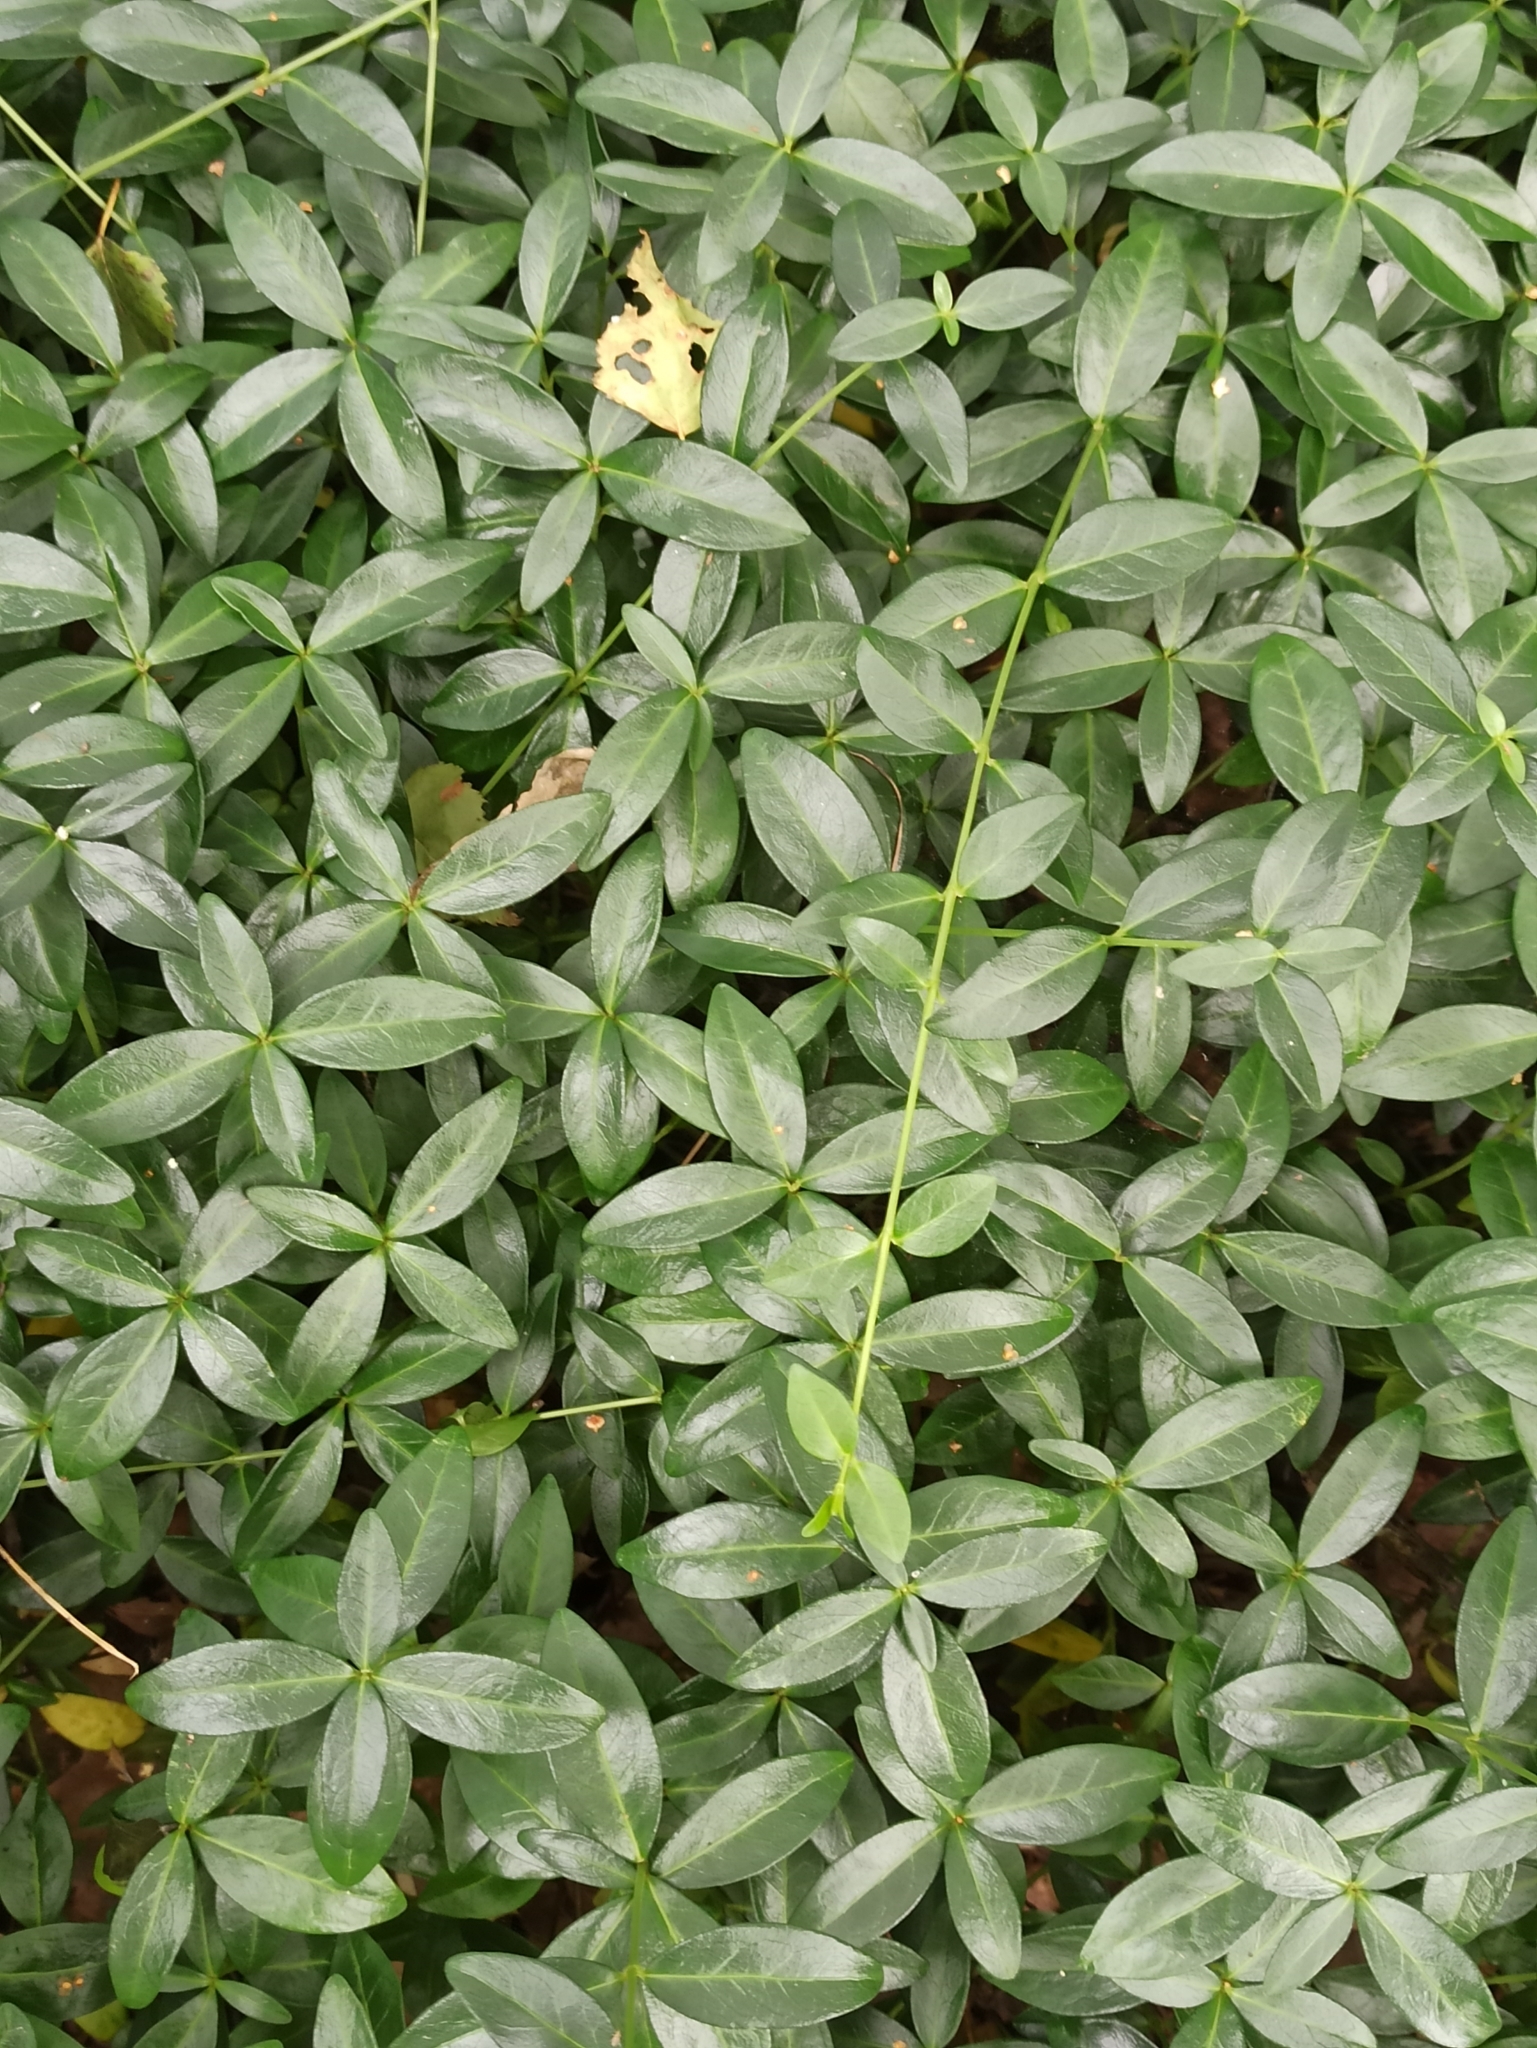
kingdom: Plantae
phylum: Tracheophyta
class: Magnoliopsida
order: Gentianales
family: Apocynaceae
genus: Vinca
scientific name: Vinca minor
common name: Lesser periwinkle
